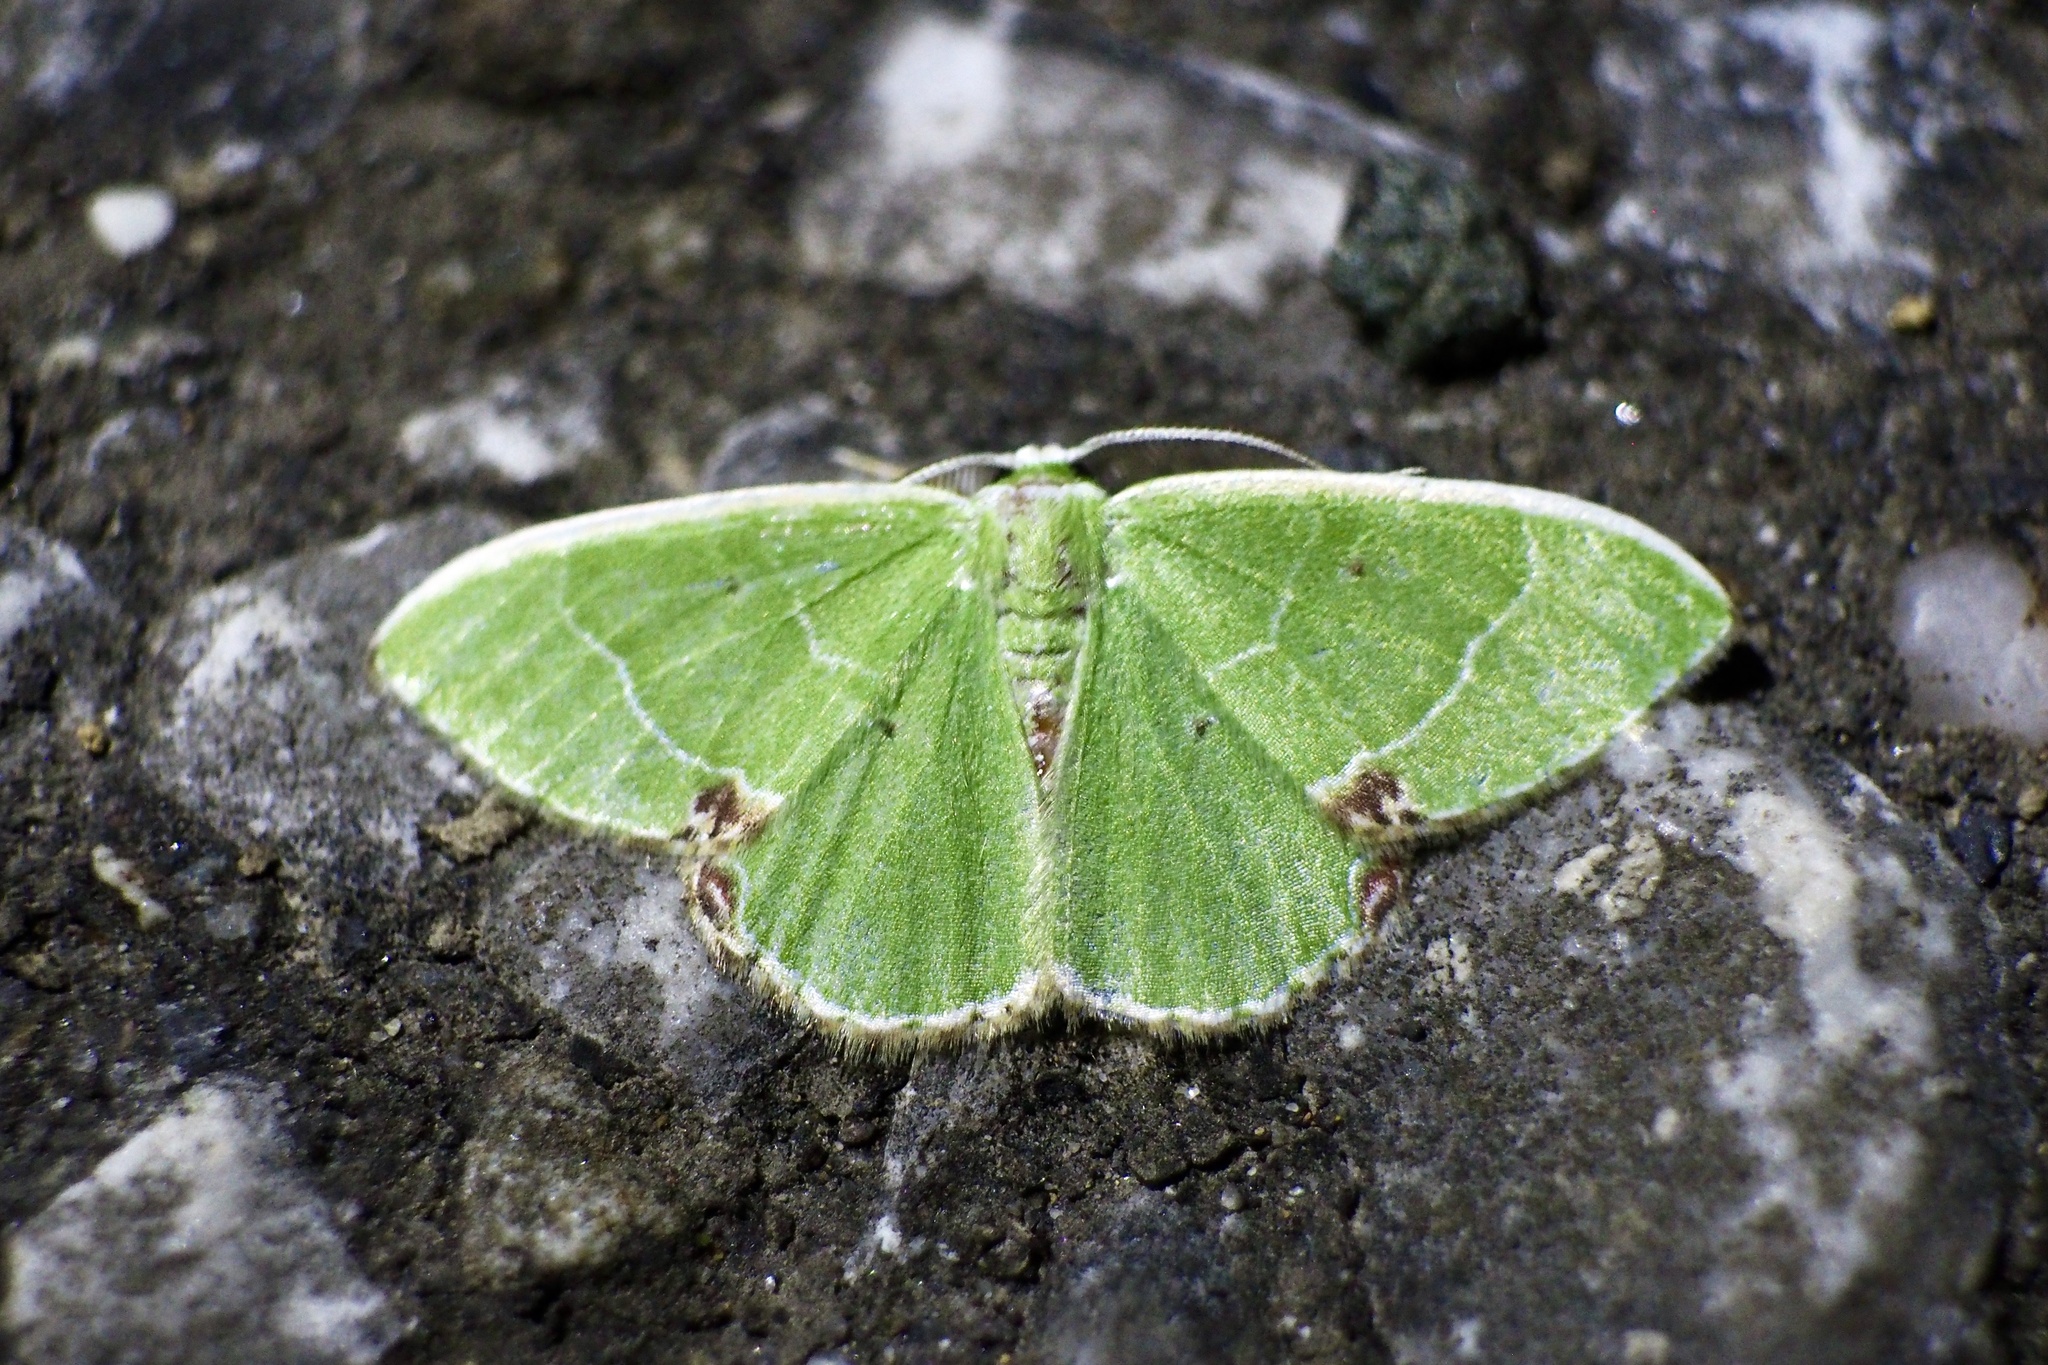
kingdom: Animalia
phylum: Arthropoda
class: Insecta
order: Lepidoptera
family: Geometridae
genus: Comibaena
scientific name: Comibaena amoenaria
